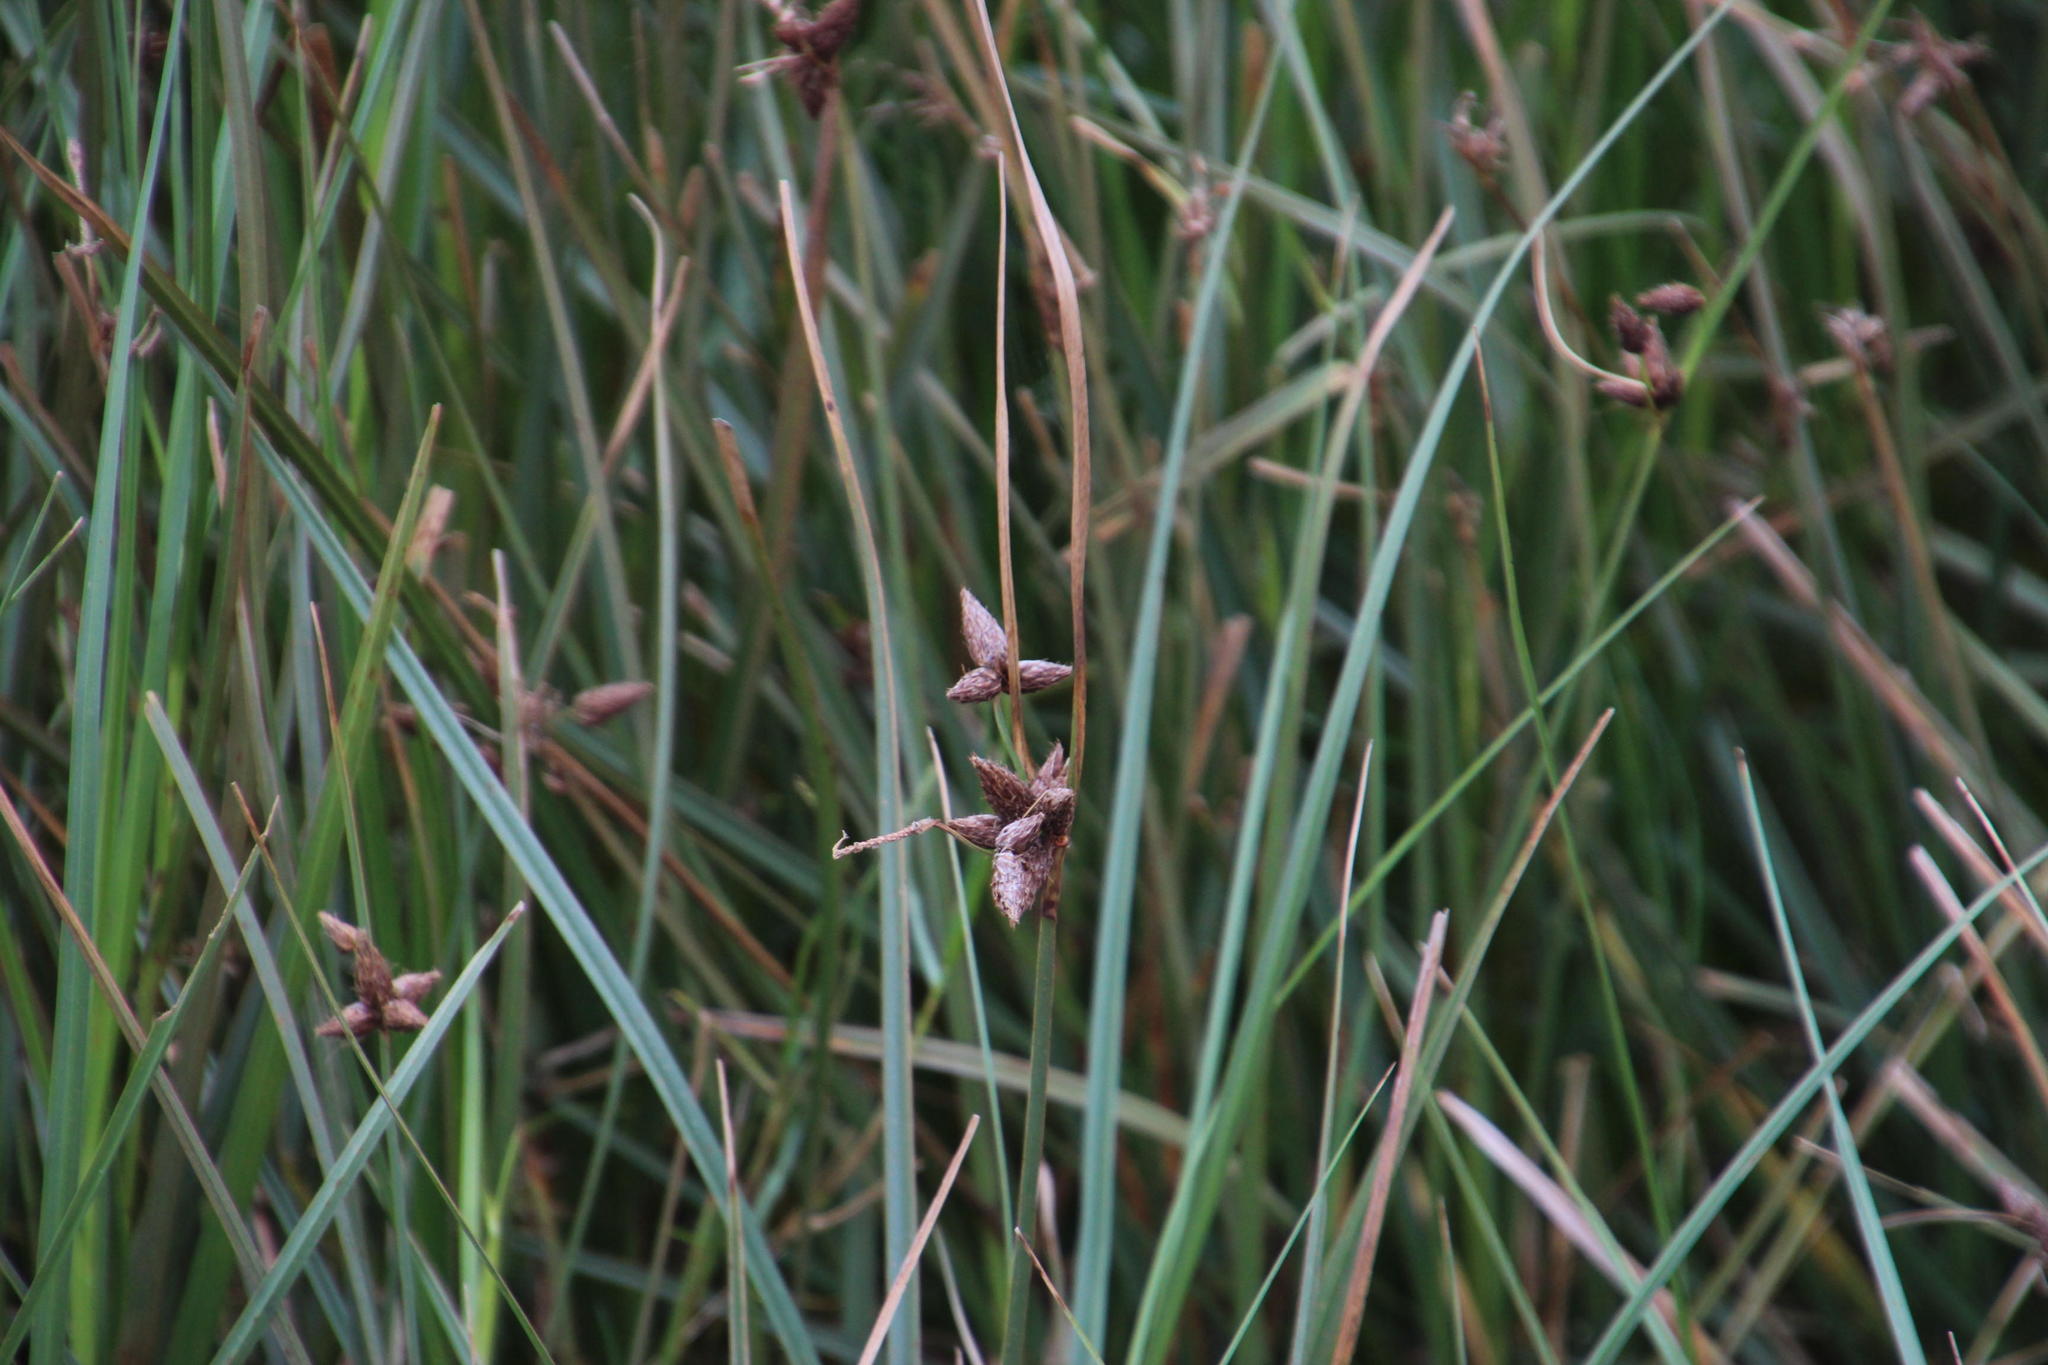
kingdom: Plantae
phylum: Tracheophyta
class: Liliopsida
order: Poales
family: Cyperaceae
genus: Bolboschoenus
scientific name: Bolboschoenus maritimus
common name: Sea club-rush
